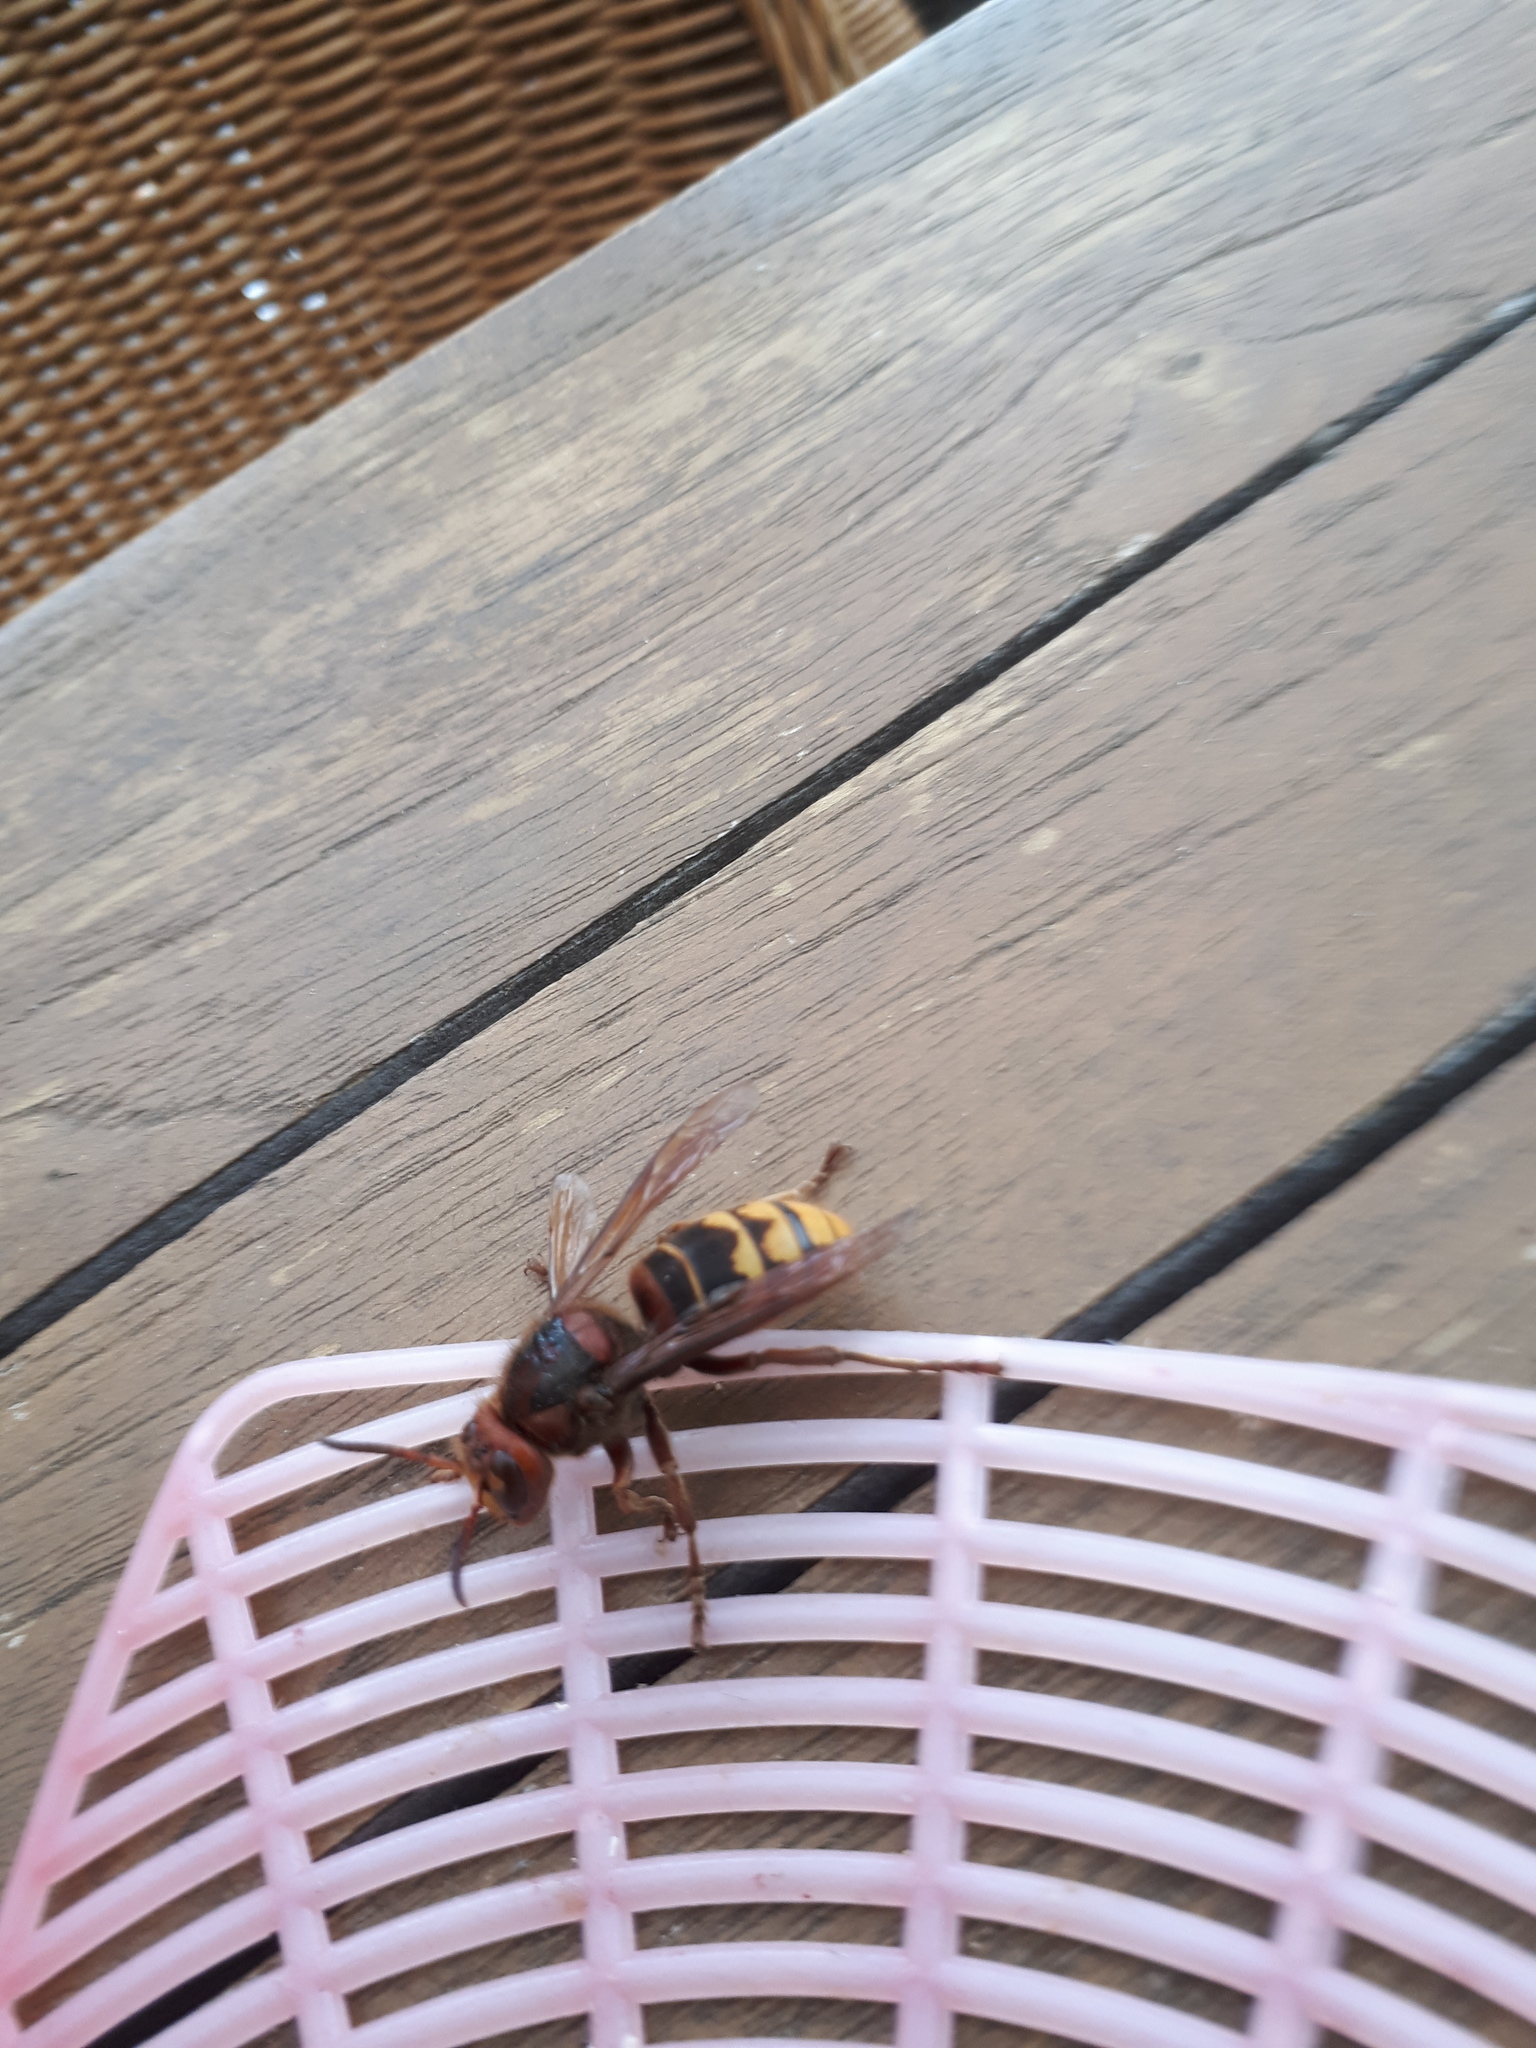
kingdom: Animalia
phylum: Arthropoda
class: Insecta
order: Hymenoptera
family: Vespidae
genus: Vespa
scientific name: Vespa crabro
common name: Hornet
